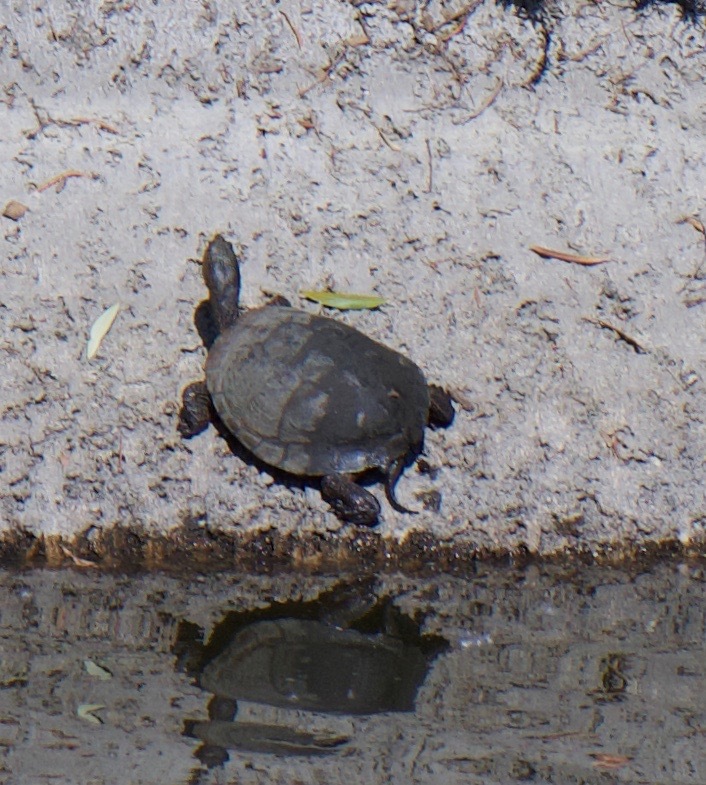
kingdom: Animalia
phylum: Chordata
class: Testudines
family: Emydidae
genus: Actinemys
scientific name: Actinemys marmorata
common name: Western pond turtle
